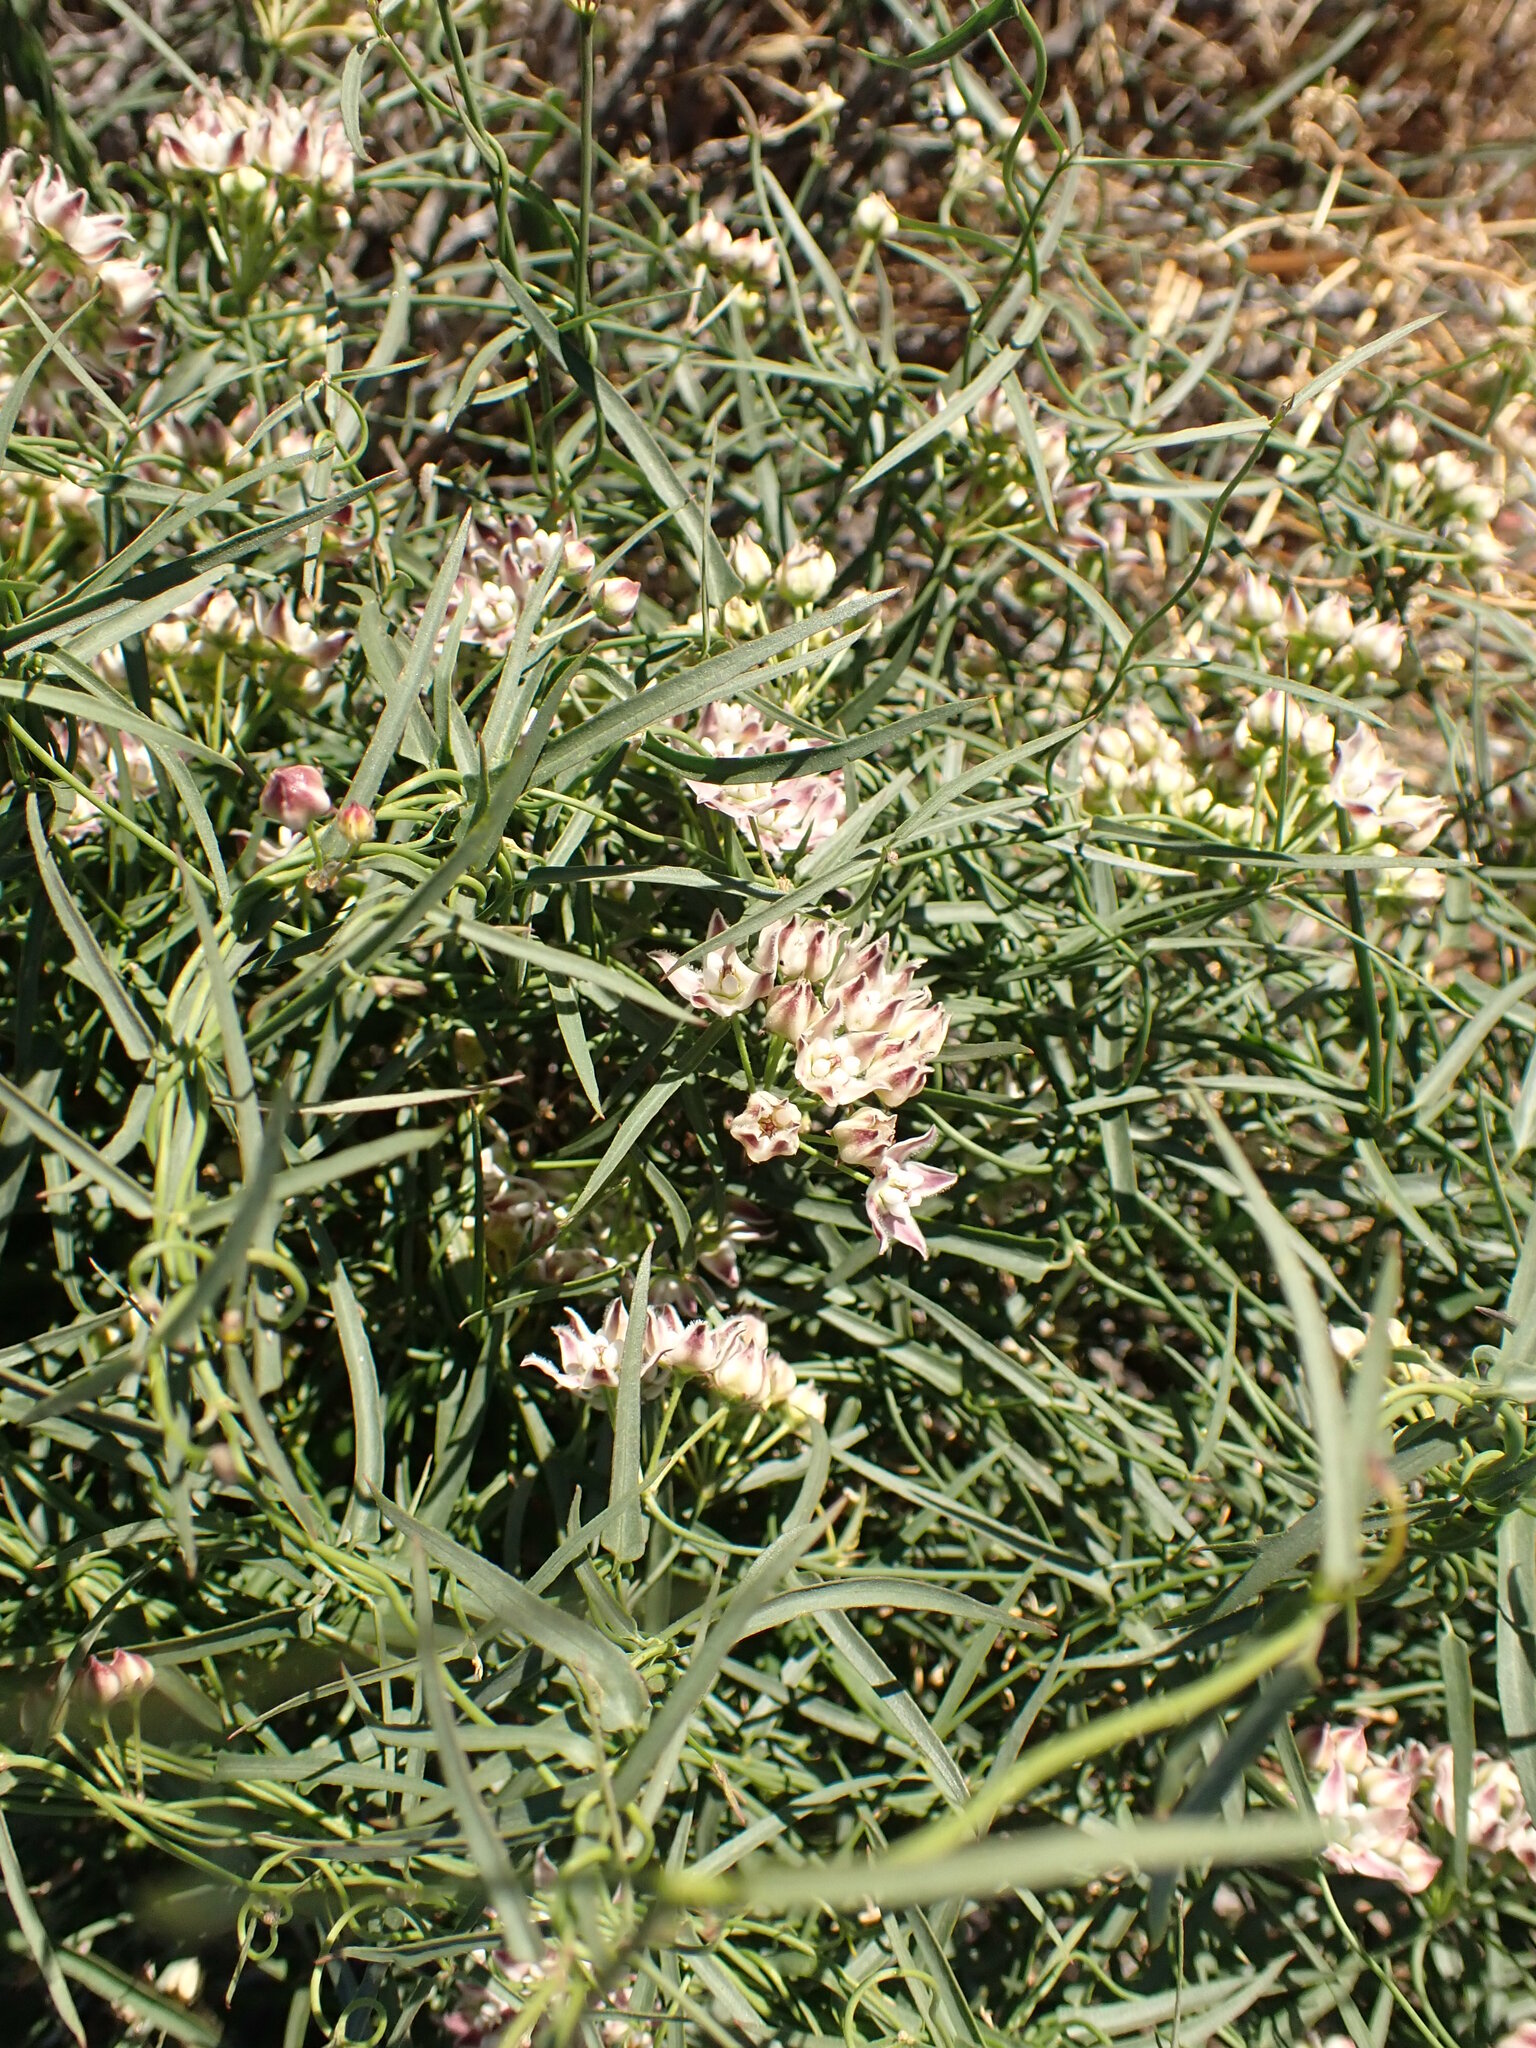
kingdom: Plantae
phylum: Tracheophyta
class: Magnoliopsida
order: Gentianales
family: Apocynaceae
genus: Funastrum
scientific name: Funastrum heterophyllum
